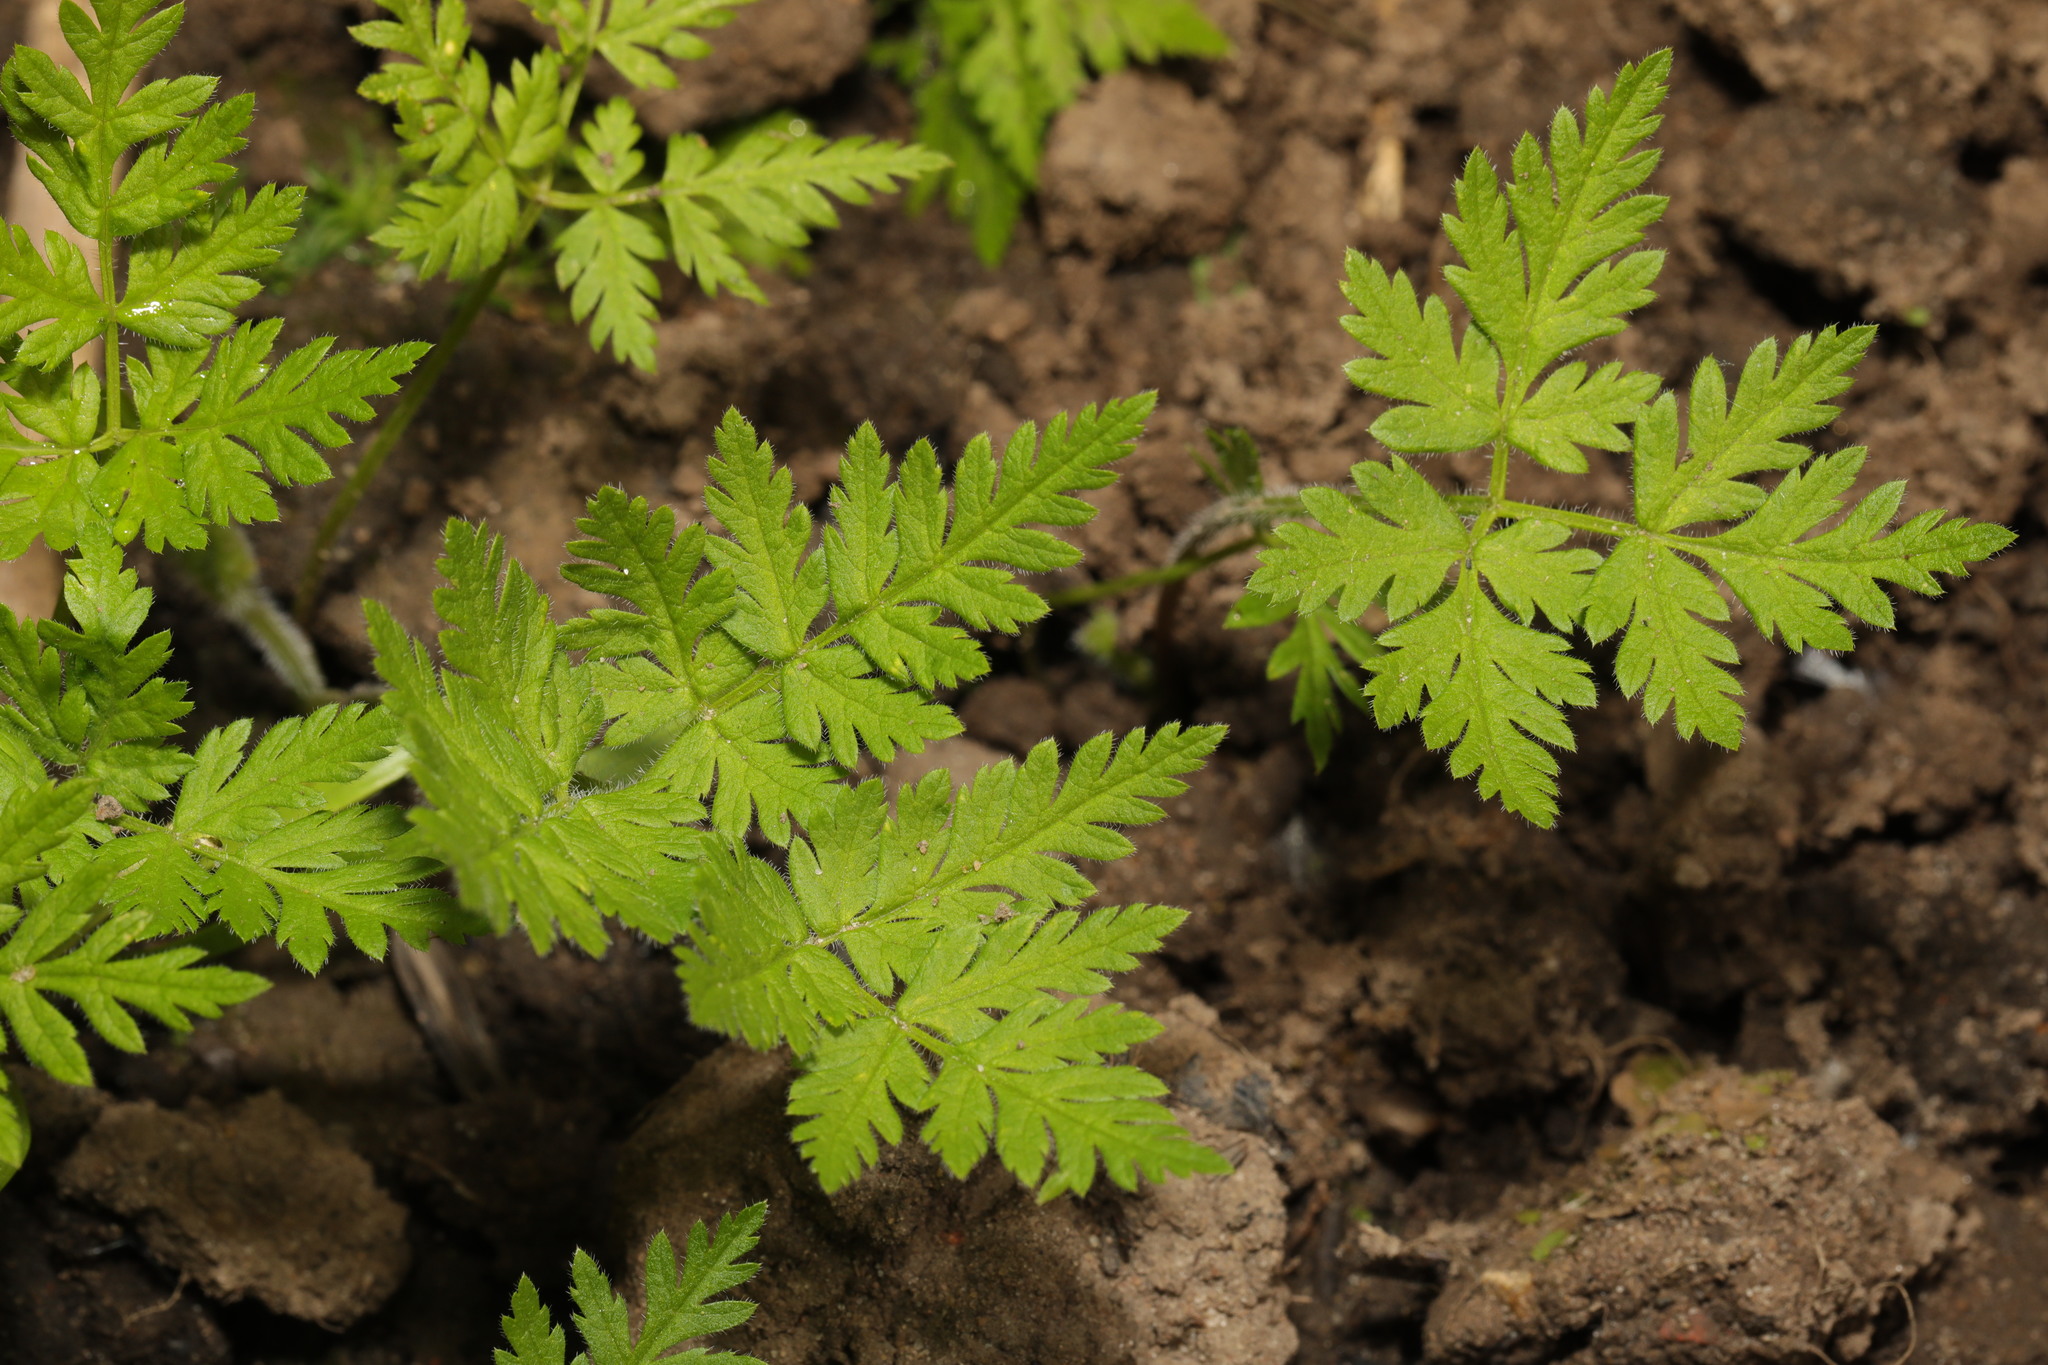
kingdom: Plantae
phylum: Tracheophyta
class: Magnoliopsida
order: Apiales
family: Apiaceae
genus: Myrrhis
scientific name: Myrrhis odorata
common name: Sweet cicely
